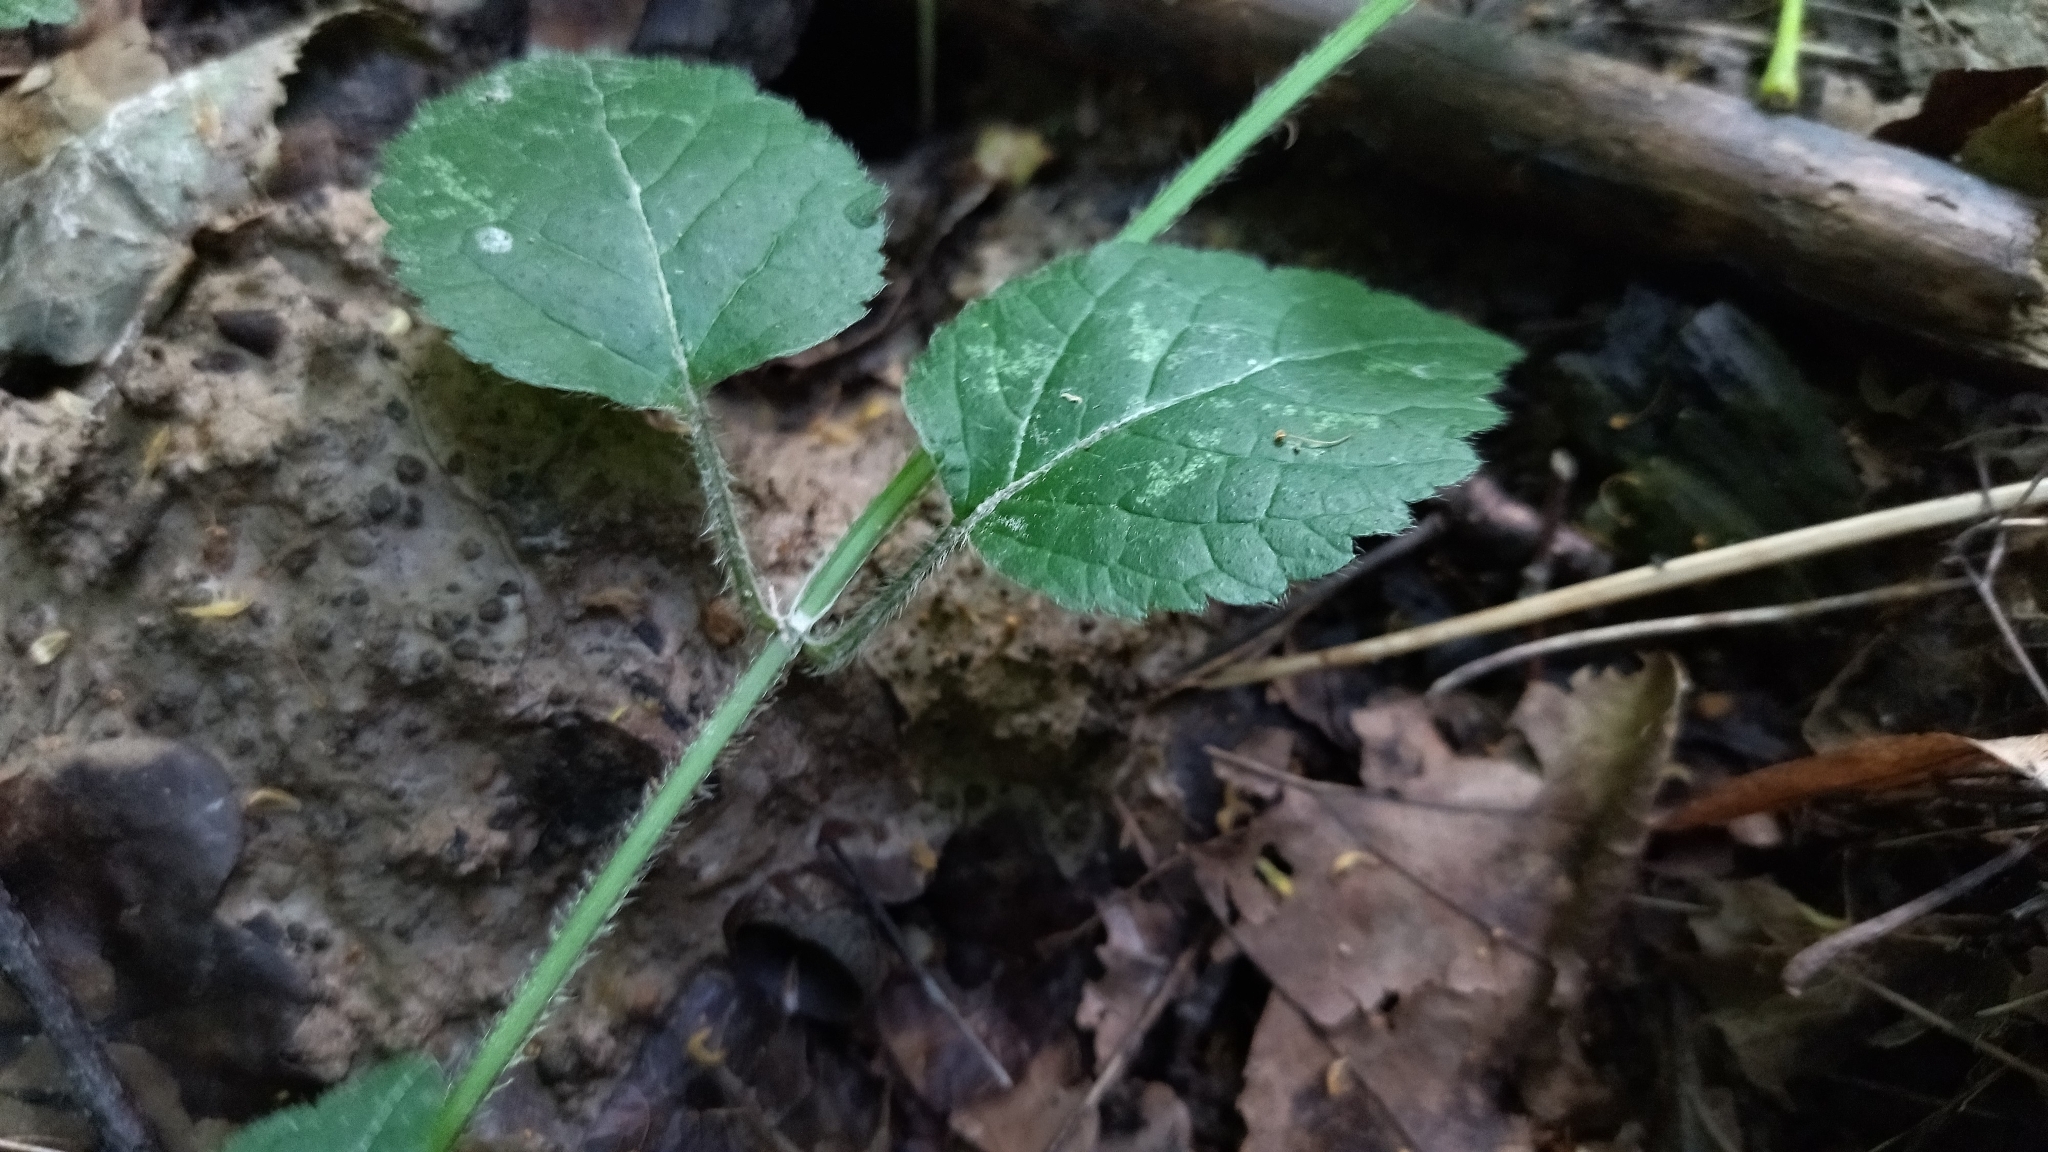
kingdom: Plantae
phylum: Tracheophyta
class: Magnoliopsida
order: Lamiales
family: Lamiaceae
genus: Lamium
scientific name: Lamium galeobdolon
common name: Yellow archangel
